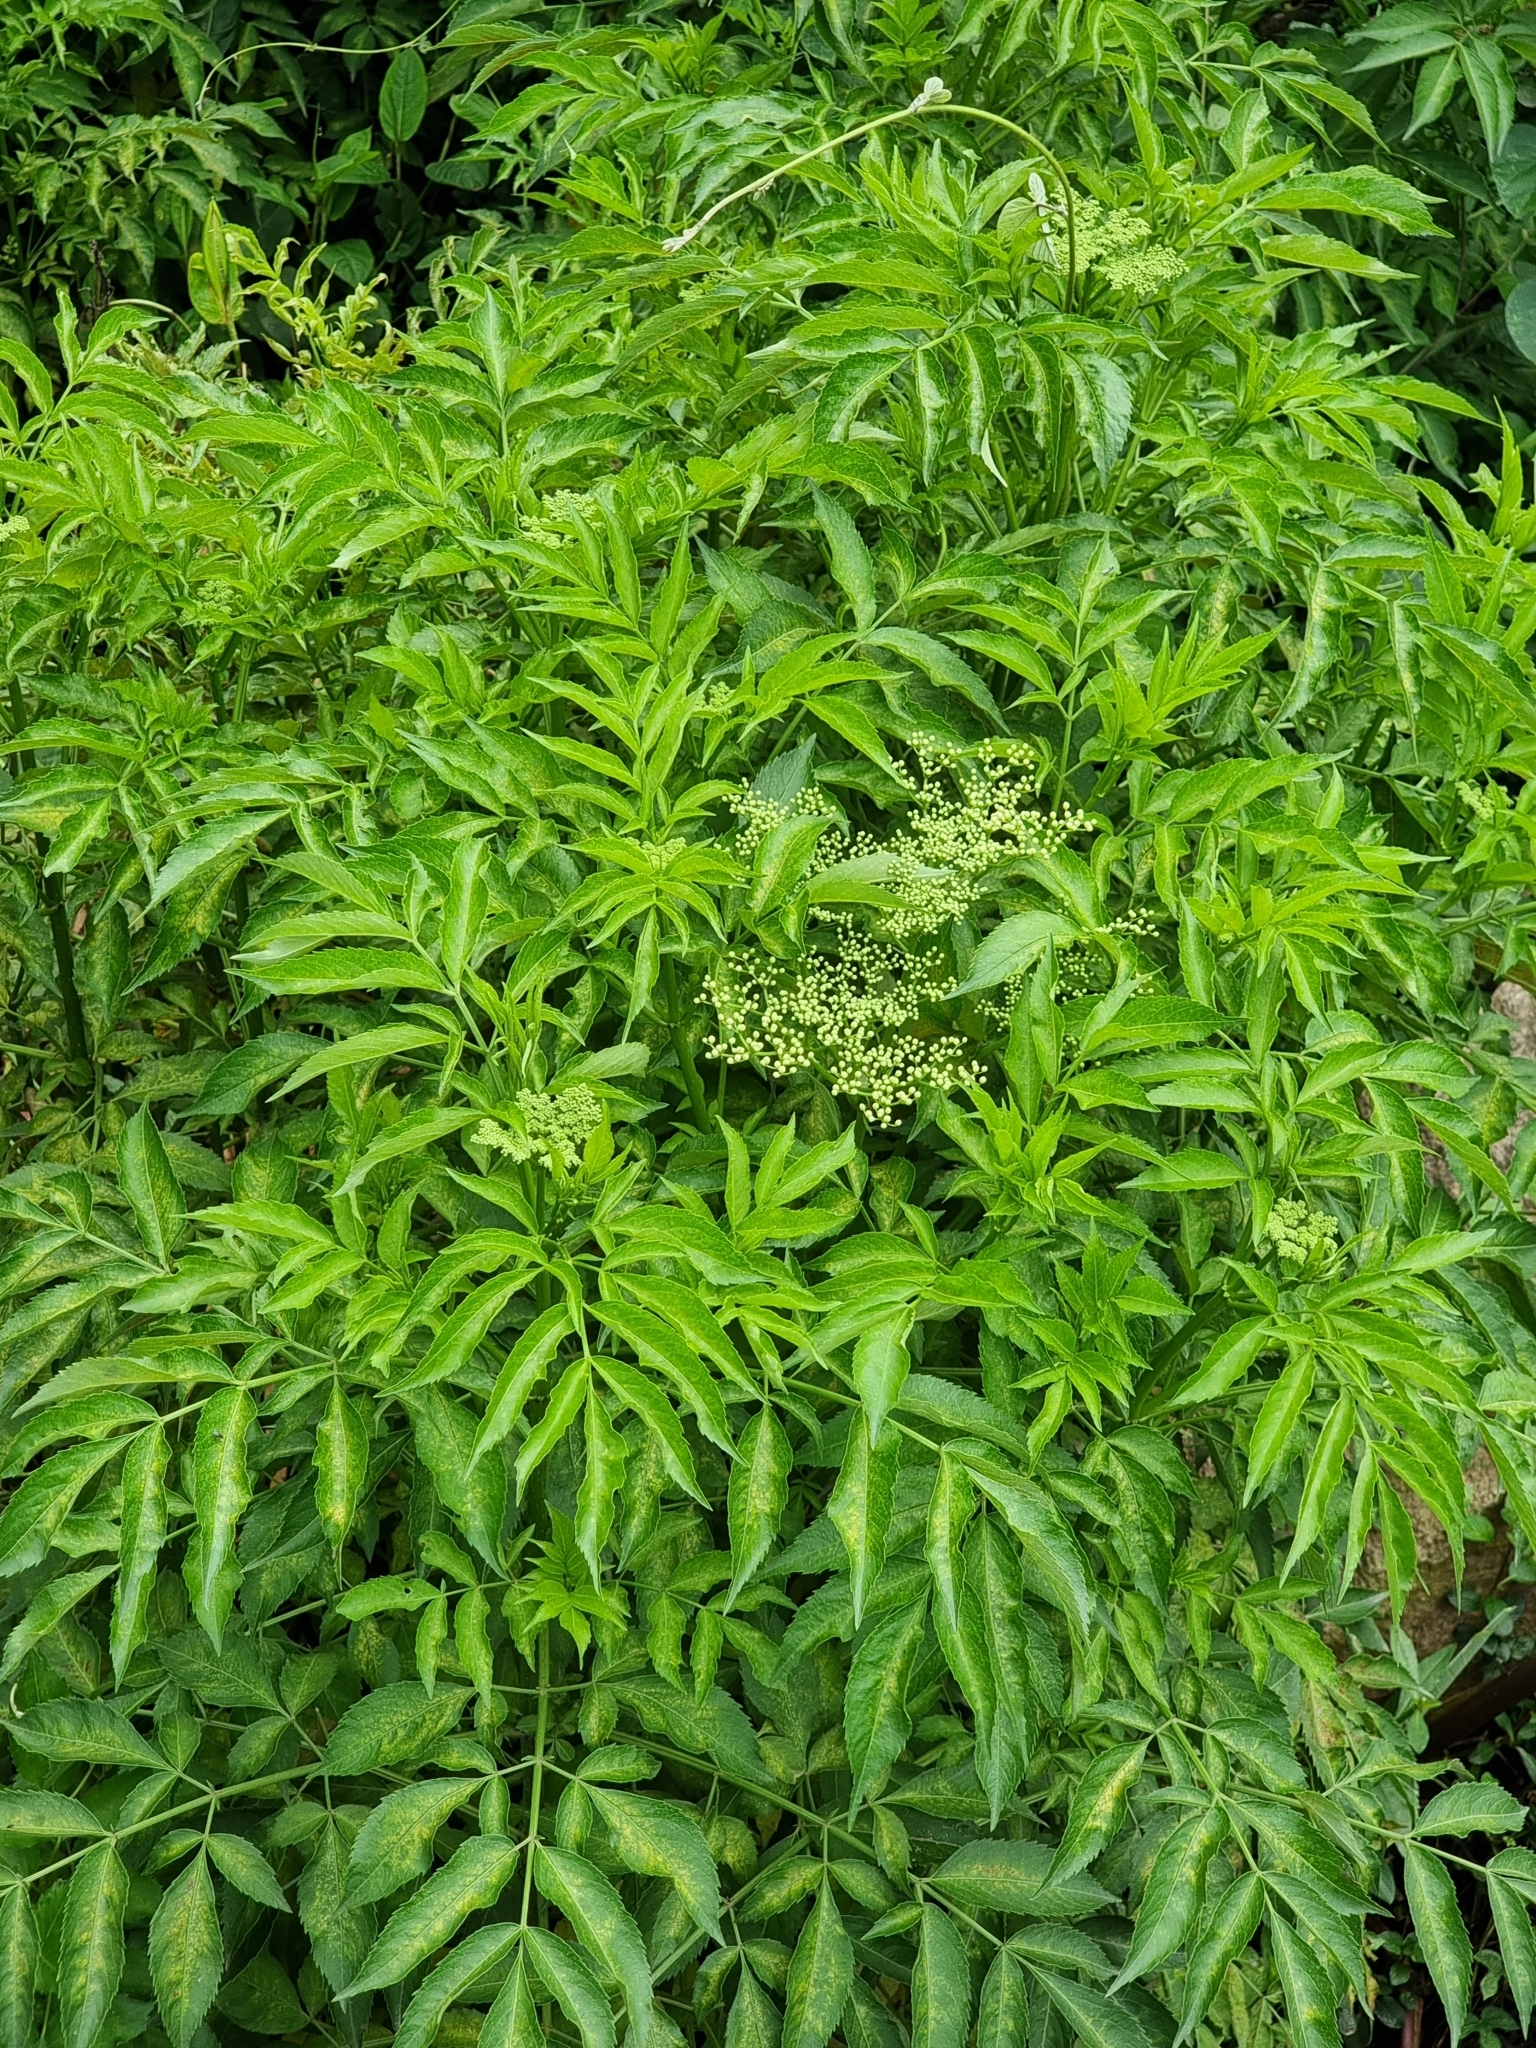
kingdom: Plantae
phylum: Tracheophyta
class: Magnoliopsida
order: Dipsacales
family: Viburnaceae
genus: Sambucus
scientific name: Sambucus canadensis
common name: American elder
